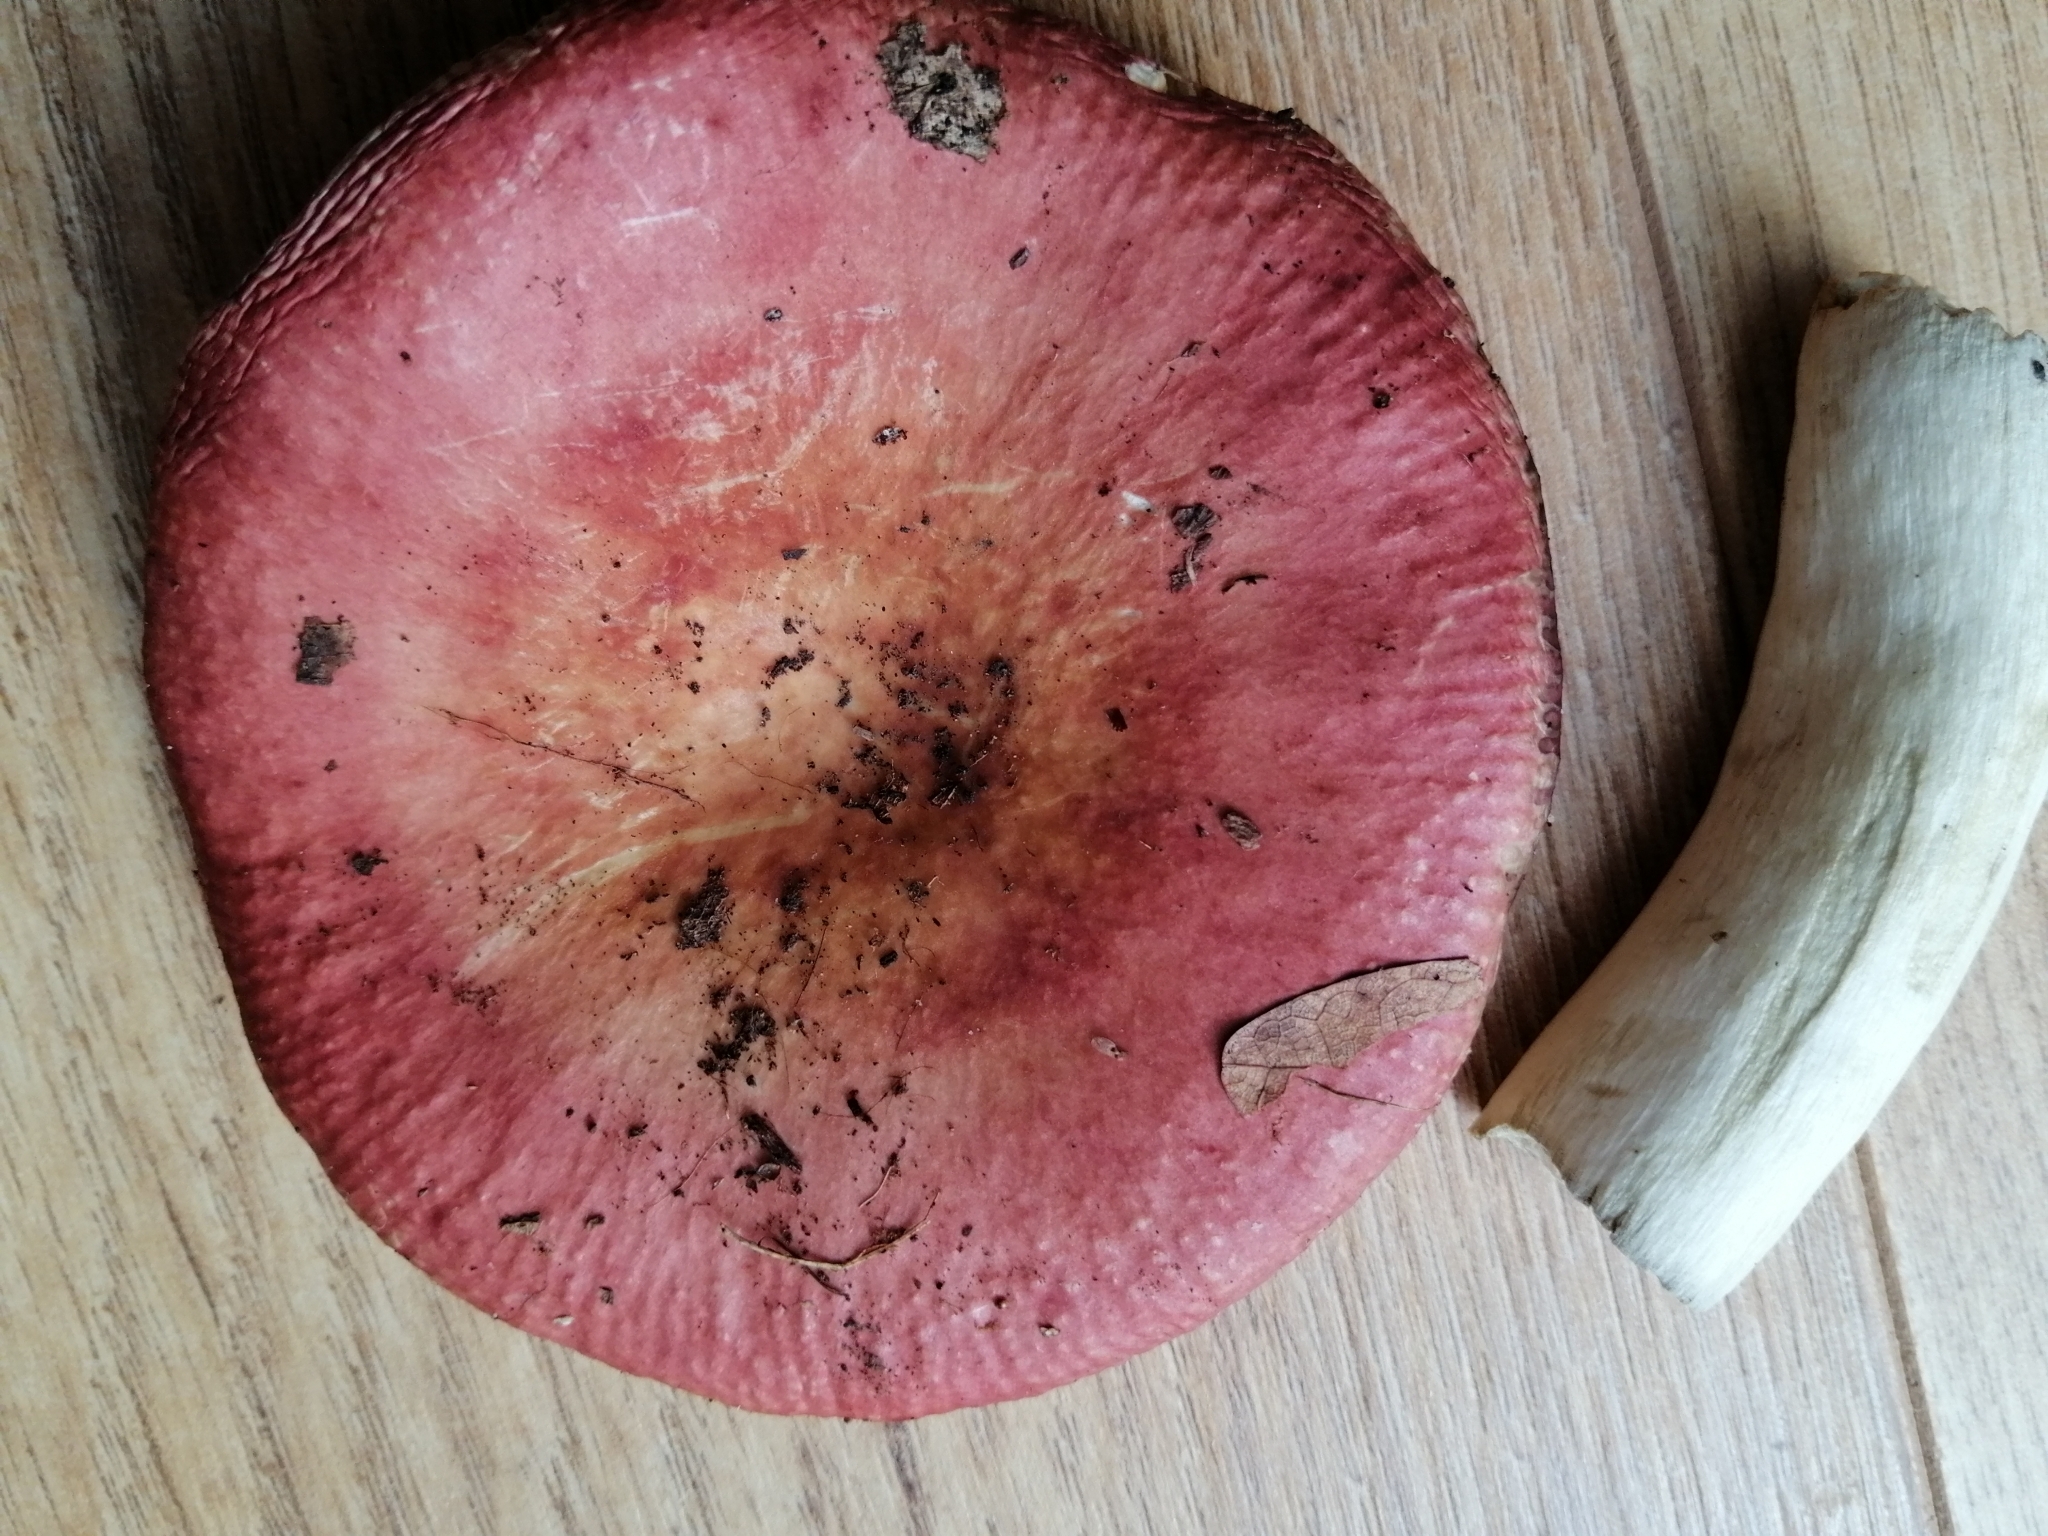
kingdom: Fungi
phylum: Basidiomycota
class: Agaricomycetes
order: Russulales
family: Russulaceae
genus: Russula
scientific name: Russula decipiens
